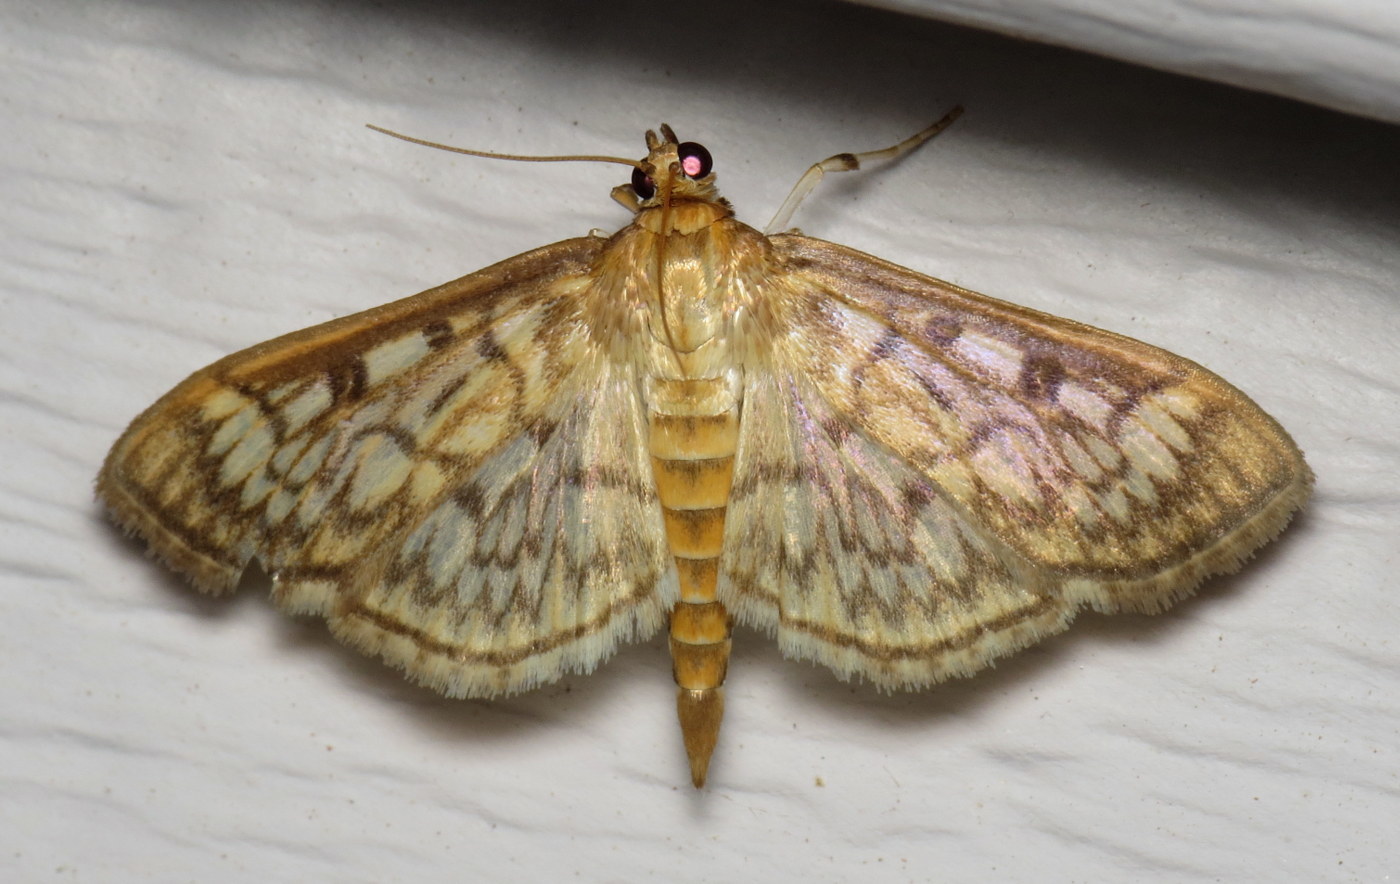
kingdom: Animalia
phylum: Arthropoda
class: Insecta
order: Lepidoptera
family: Crambidae
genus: Herpetogramma
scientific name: Herpetogramma pertextalis
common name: Bold-feathered grass moth
